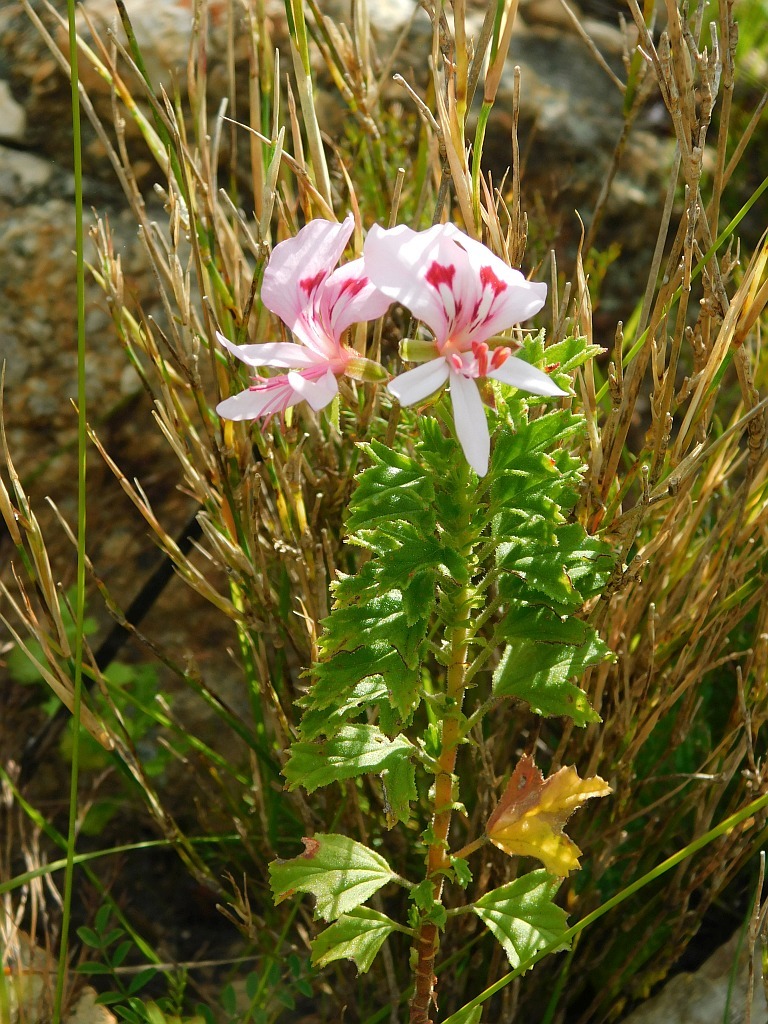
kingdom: Plantae
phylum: Tracheophyta
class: Magnoliopsida
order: Geraniales
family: Geraniaceae
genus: Pelargonium
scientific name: Pelargonium hermaniifolium
